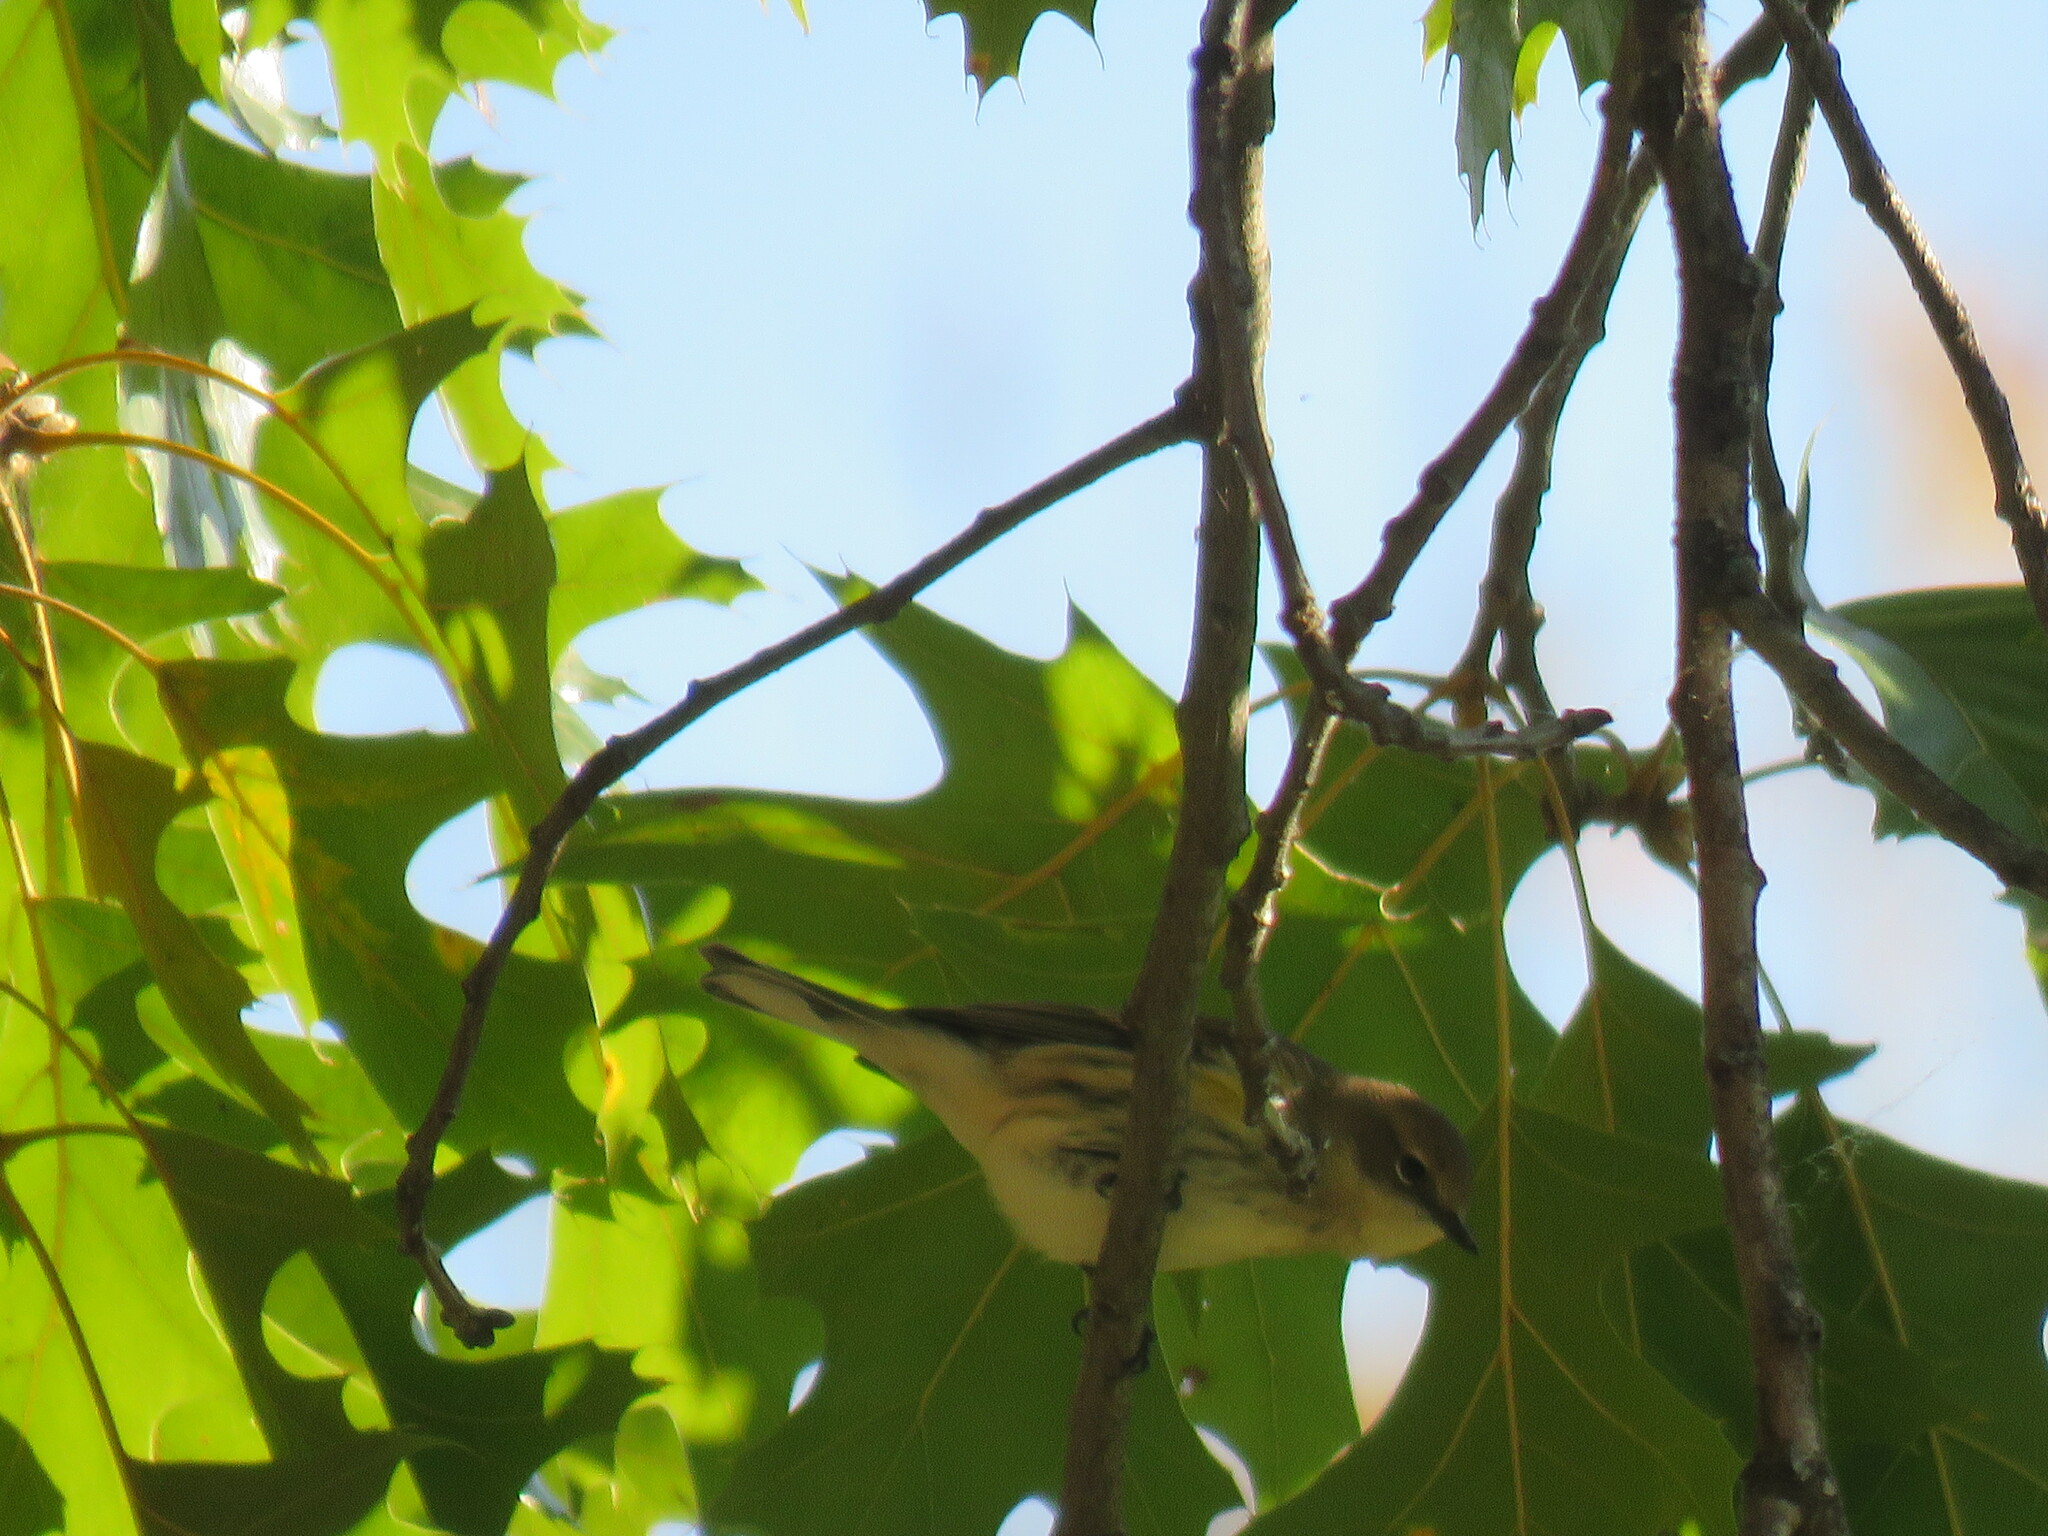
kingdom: Animalia
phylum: Chordata
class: Aves
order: Passeriformes
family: Parulidae
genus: Setophaga
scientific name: Setophaga coronata
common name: Myrtle warbler
